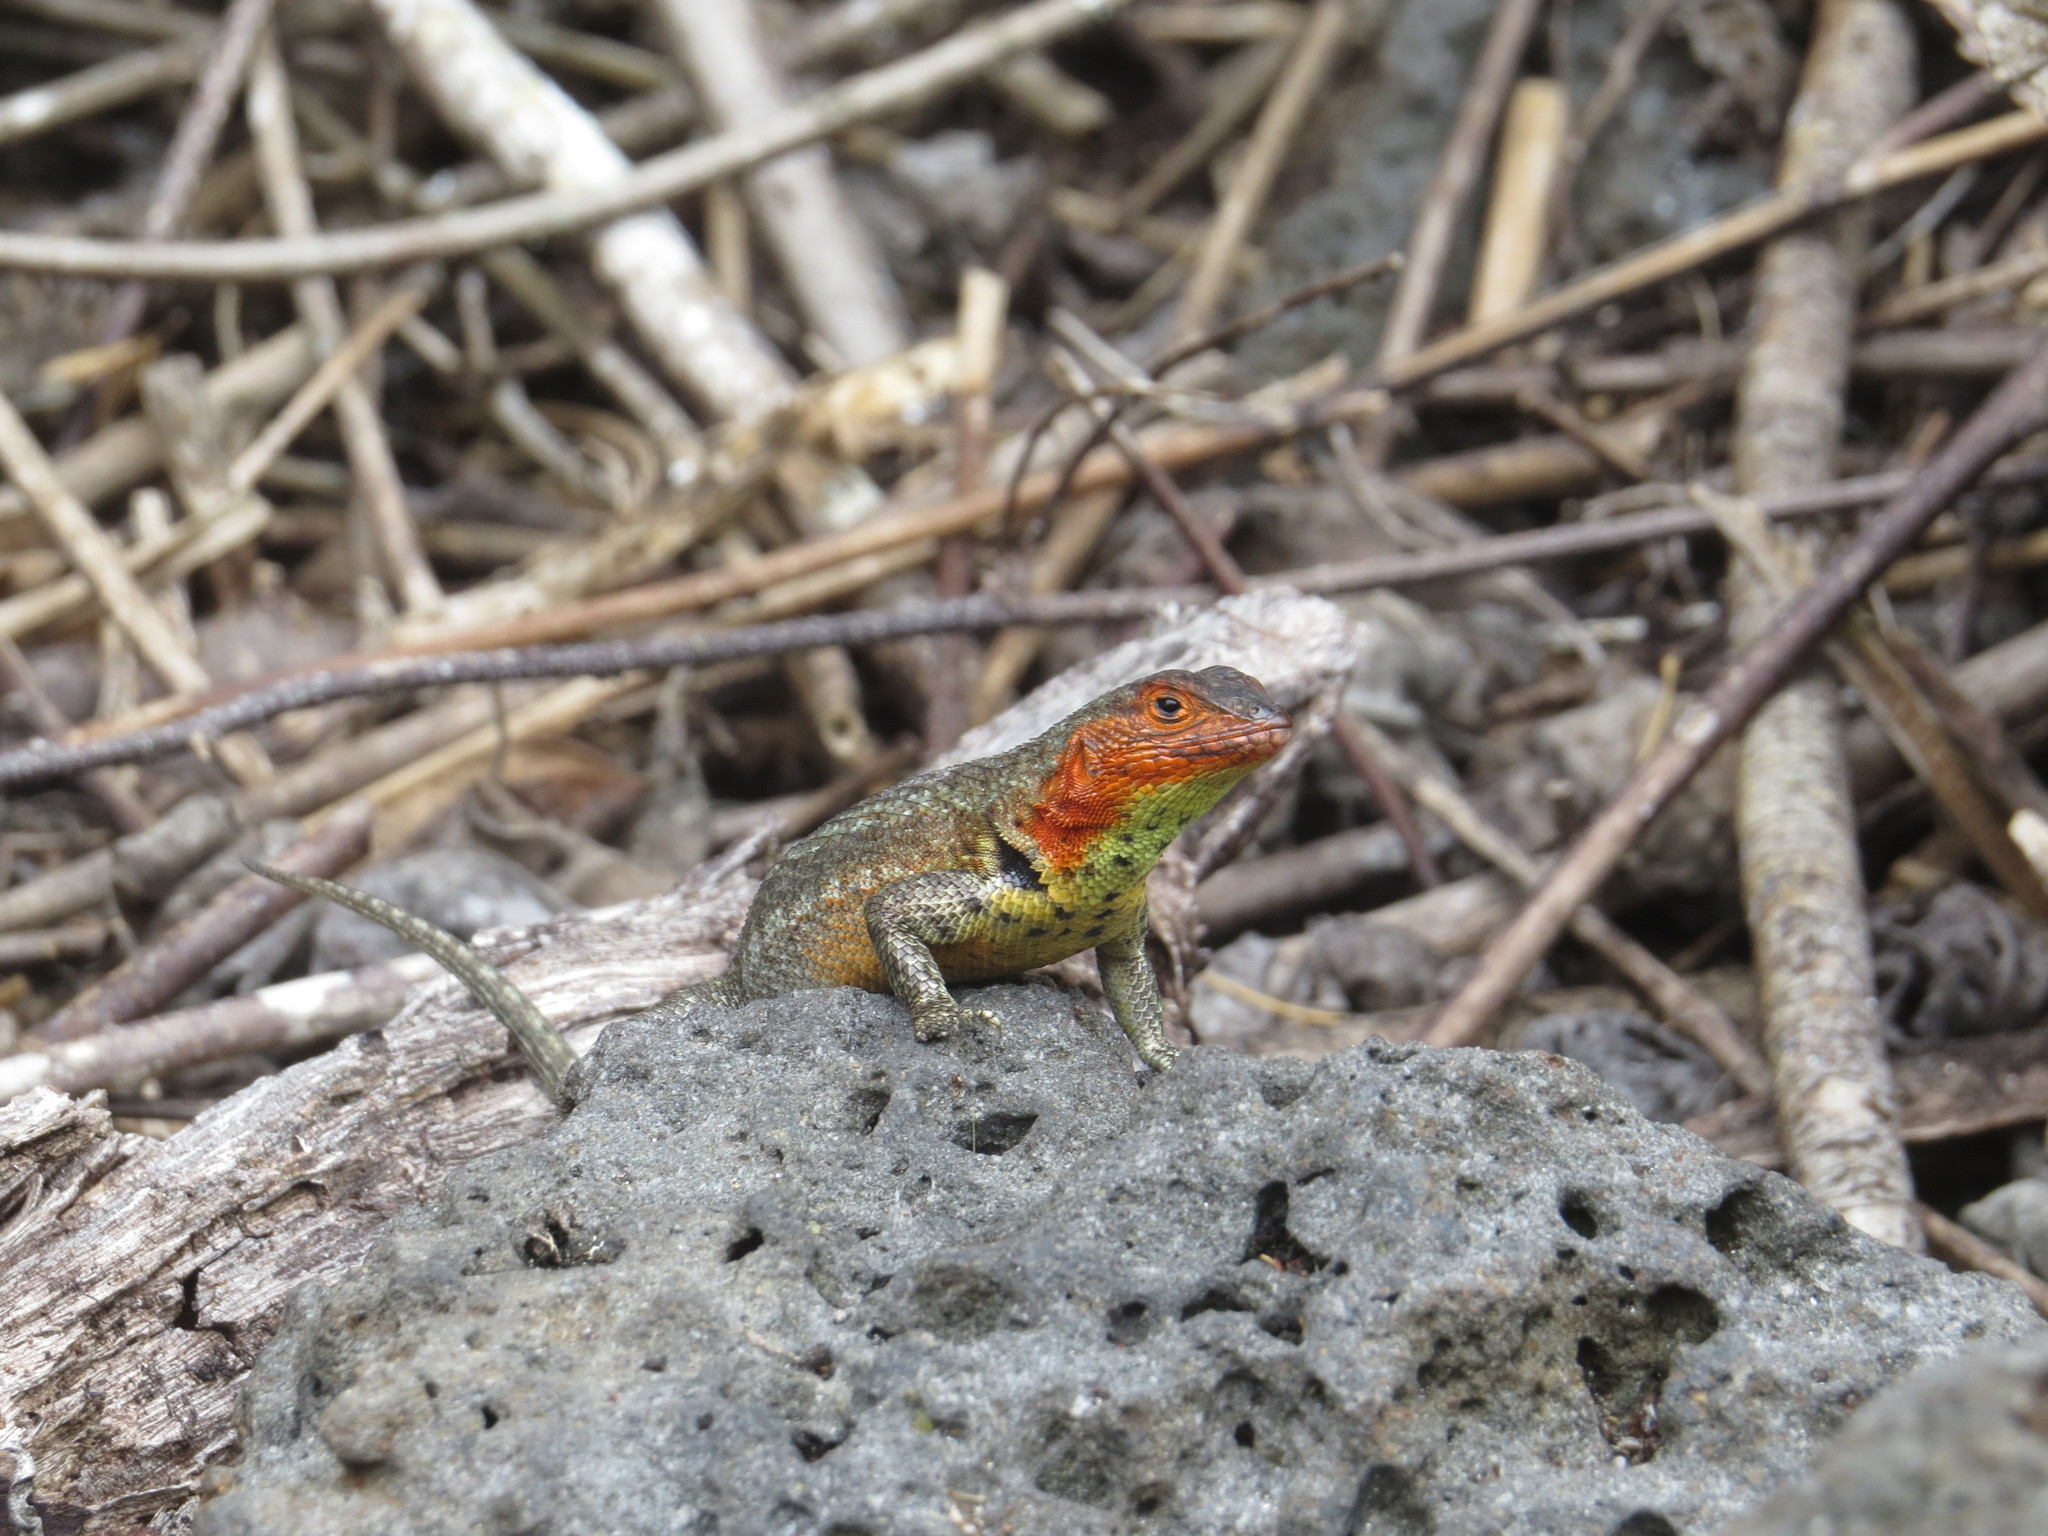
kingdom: Animalia
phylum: Chordata
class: Squamata
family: Tropiduridae
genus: Microlophus
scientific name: Microlophus indefatigabilis
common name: Galapagos lava lizard
